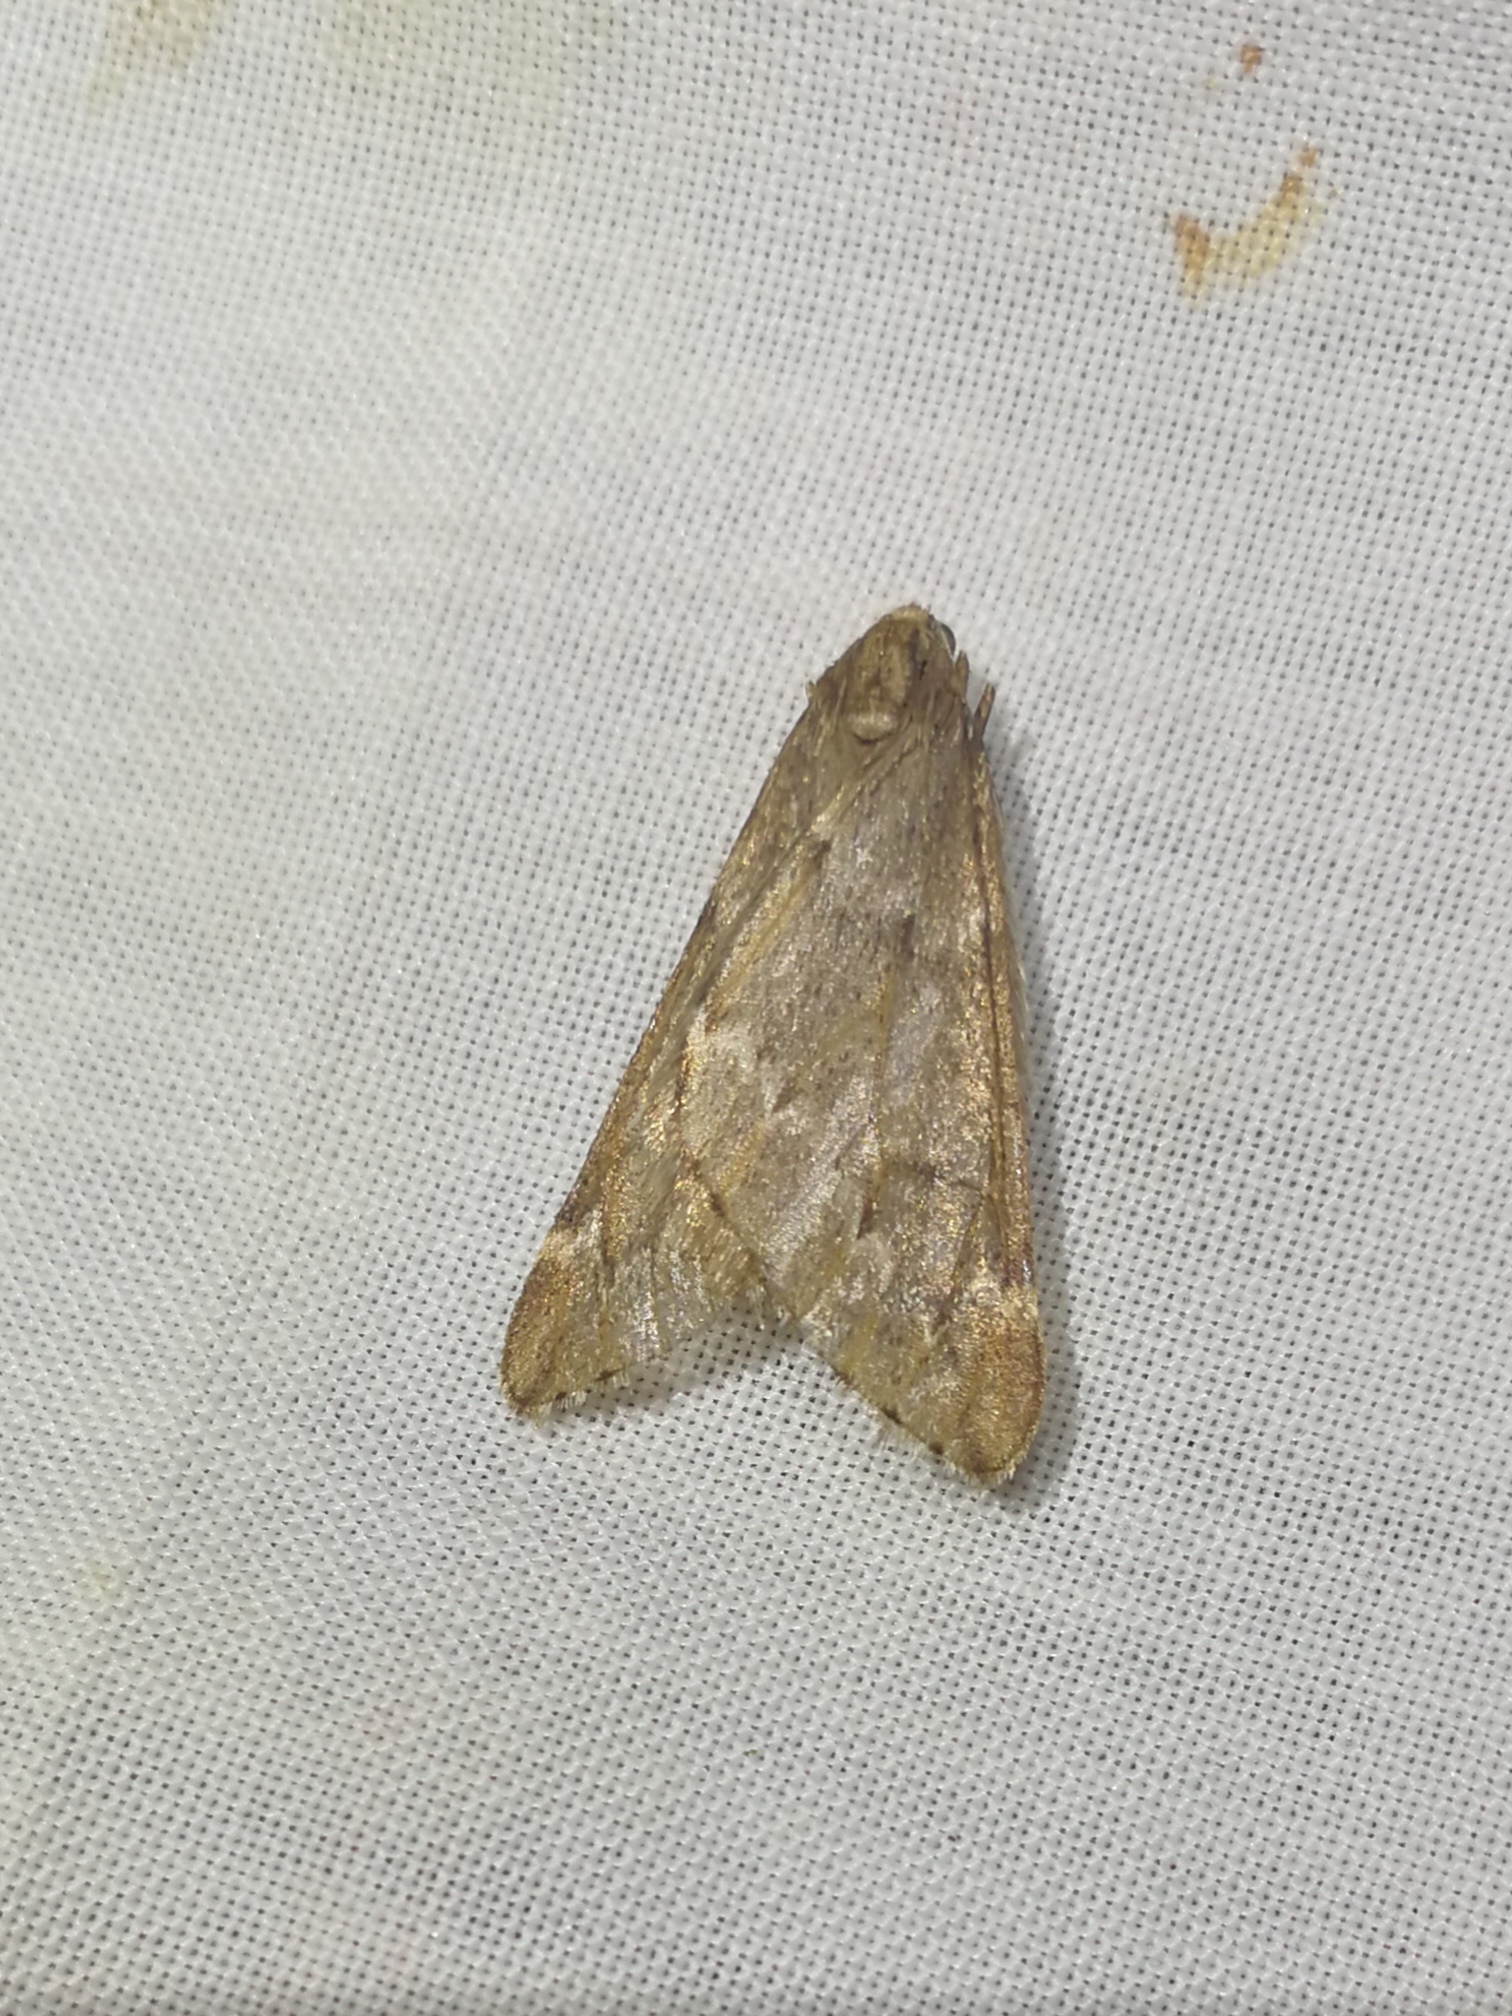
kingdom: Animalia
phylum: Arthropoda
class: Insecta
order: Lepidoptera
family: Geometridae
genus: Alsophila
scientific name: Alsophila aescularia
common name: March moth
